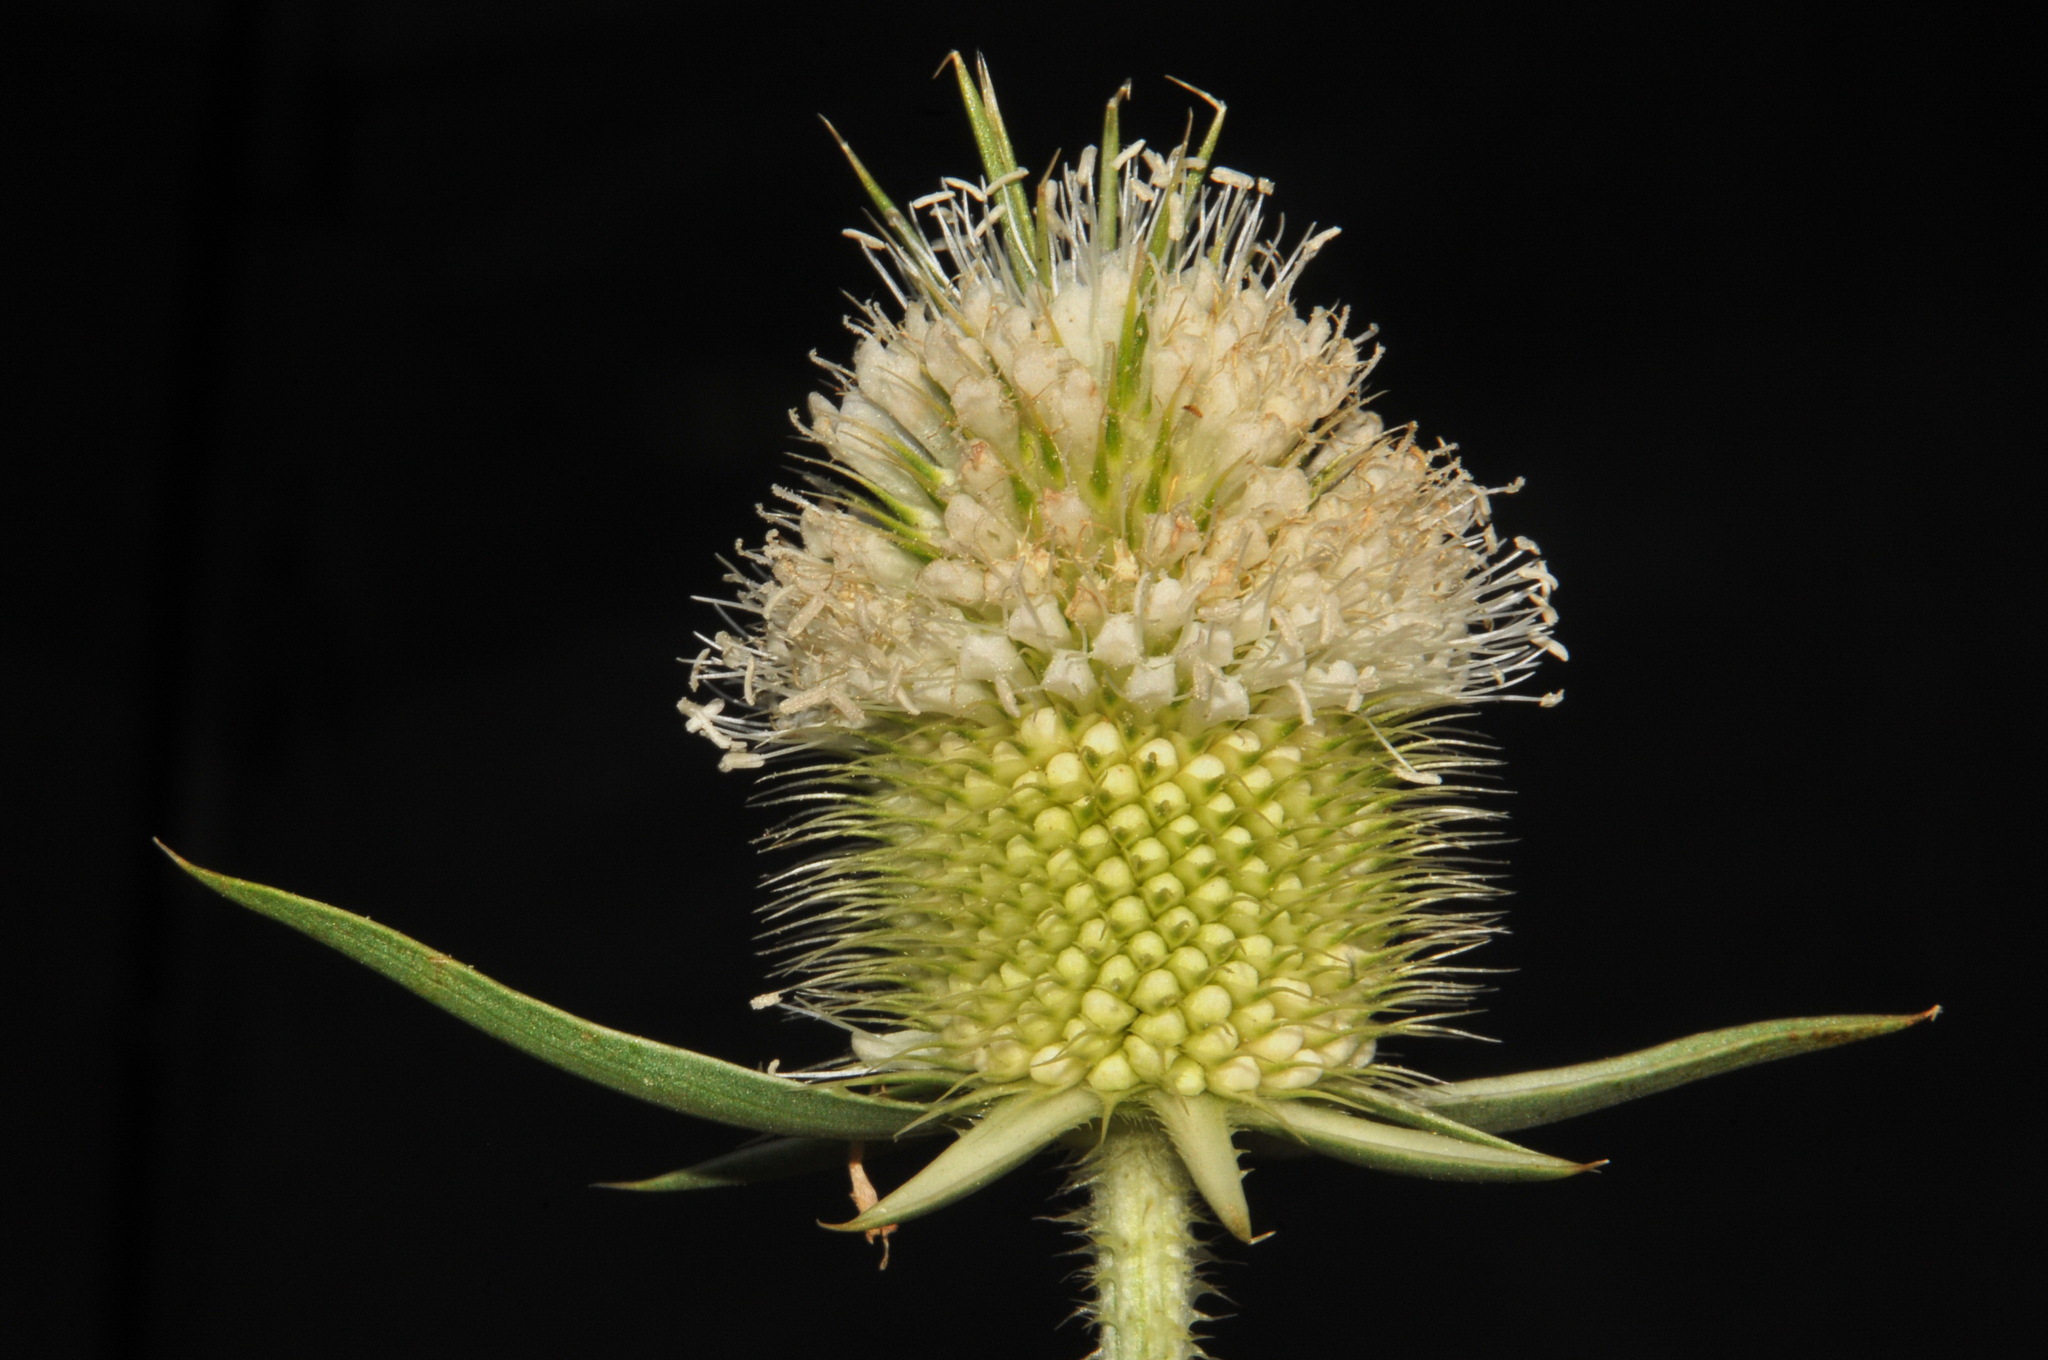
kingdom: Plantae
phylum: Tracheophyta
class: Magnoliopsida
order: Dipsacales
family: Caprifoliaceae
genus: Dipsacus
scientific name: Dipsacus laciniatus
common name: Cut-leaved teasel
